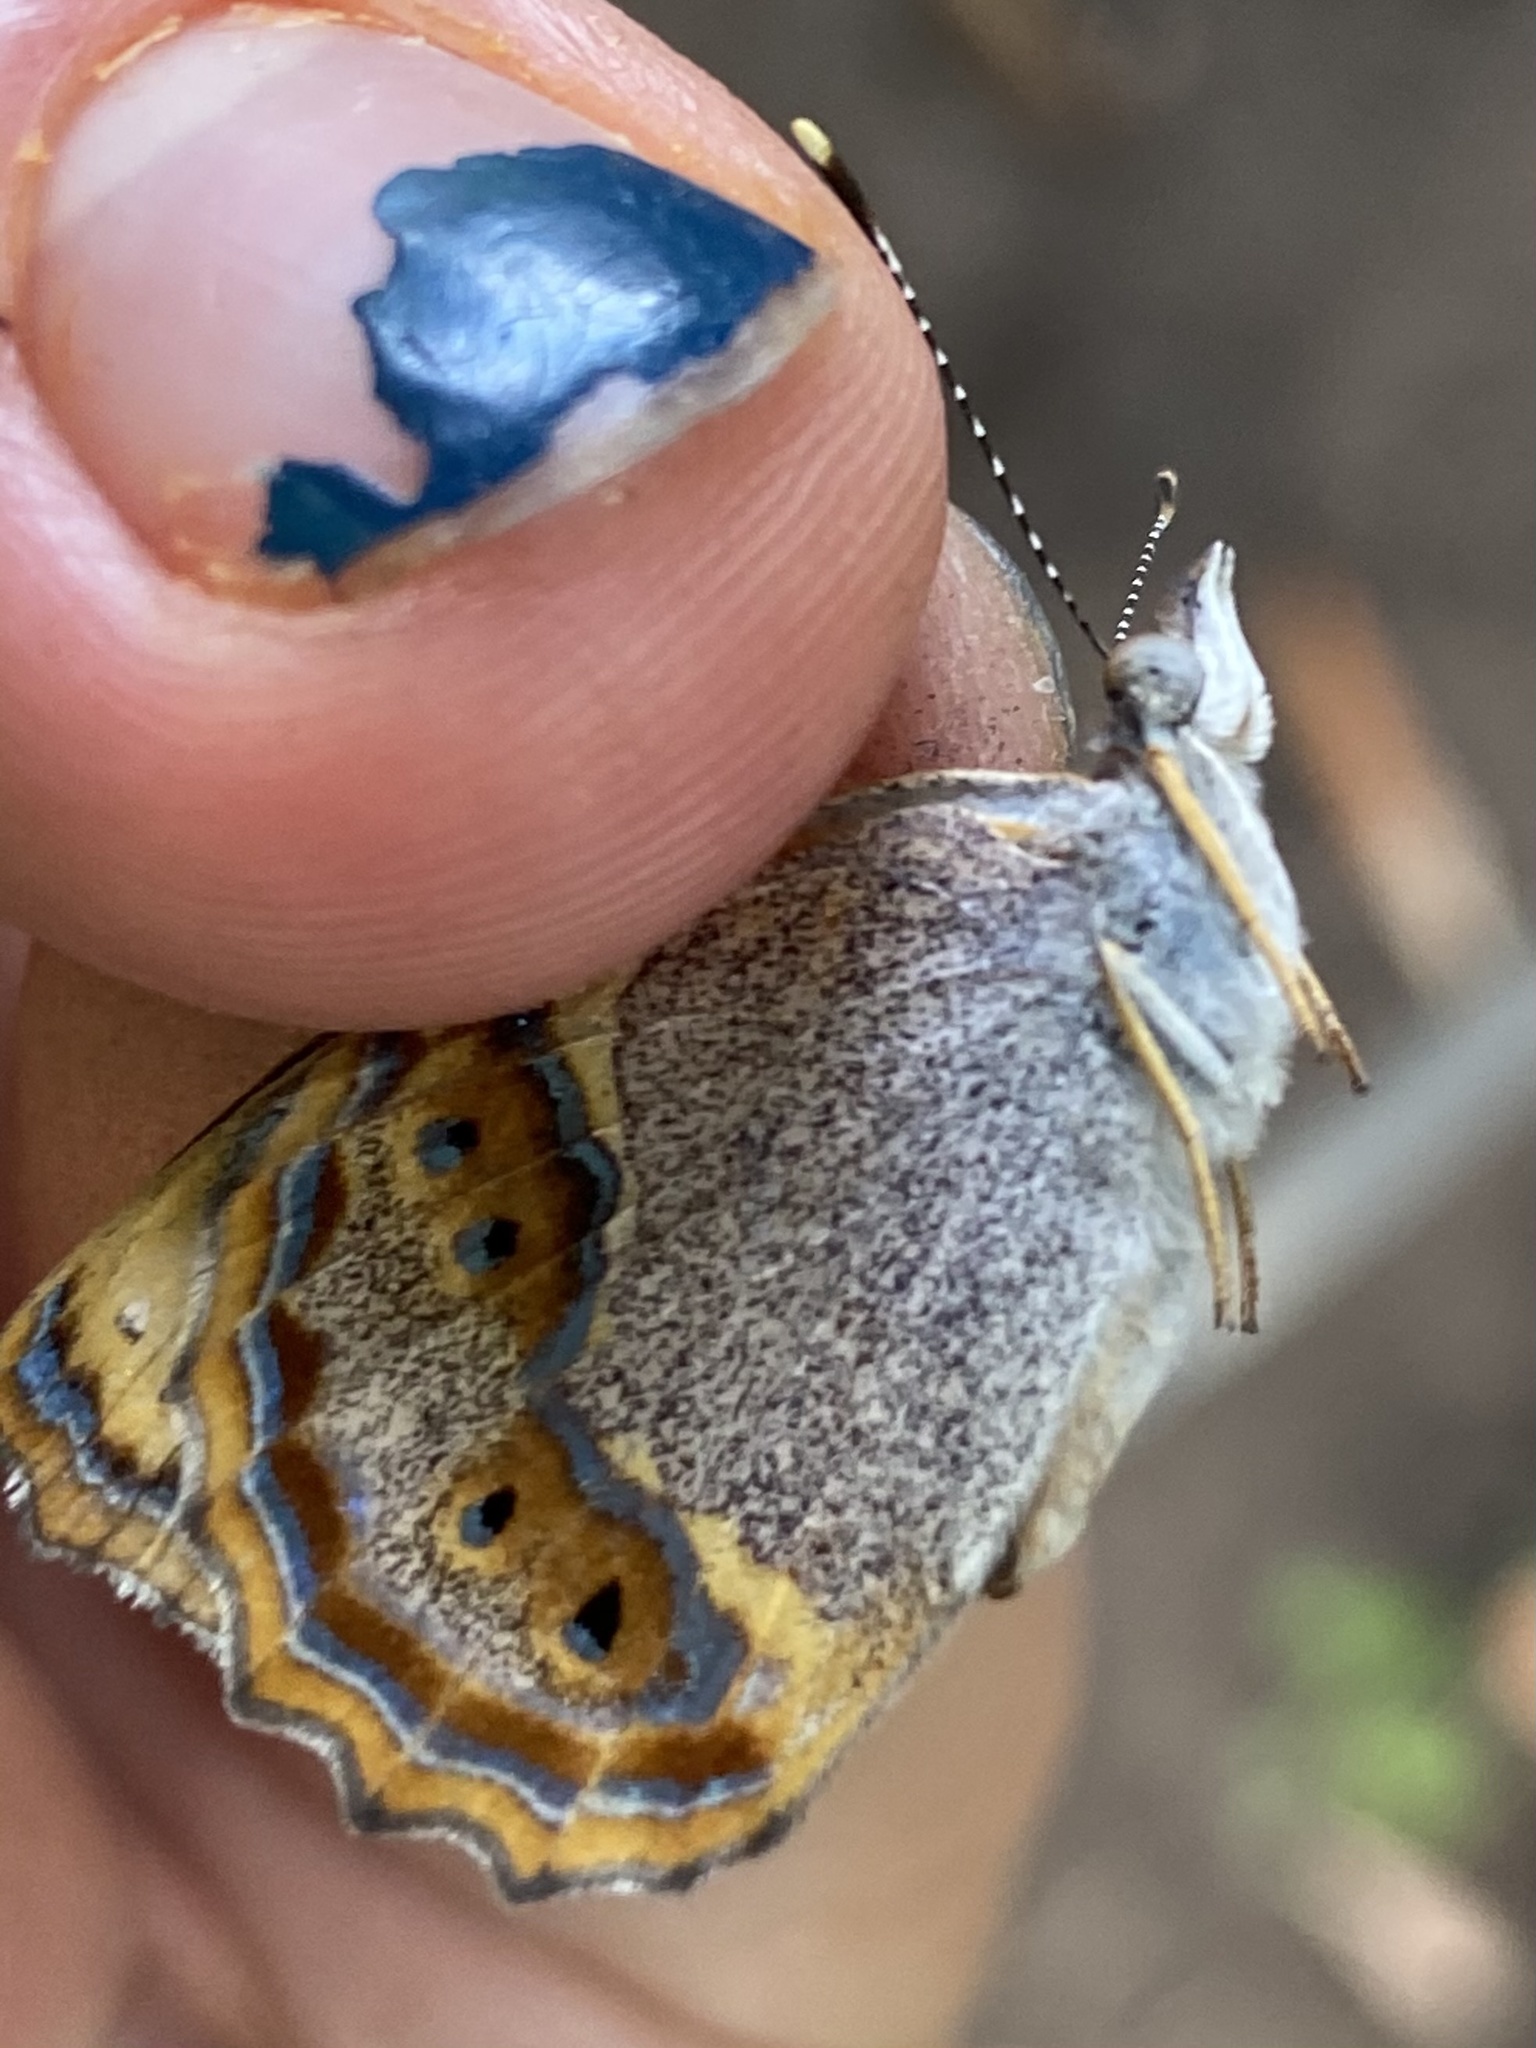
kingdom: Animalia
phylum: Arthropoda
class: Insecta
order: Lepidoptera
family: Nymphalidae
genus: Bolboneura
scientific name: Bolboneura sylphis
